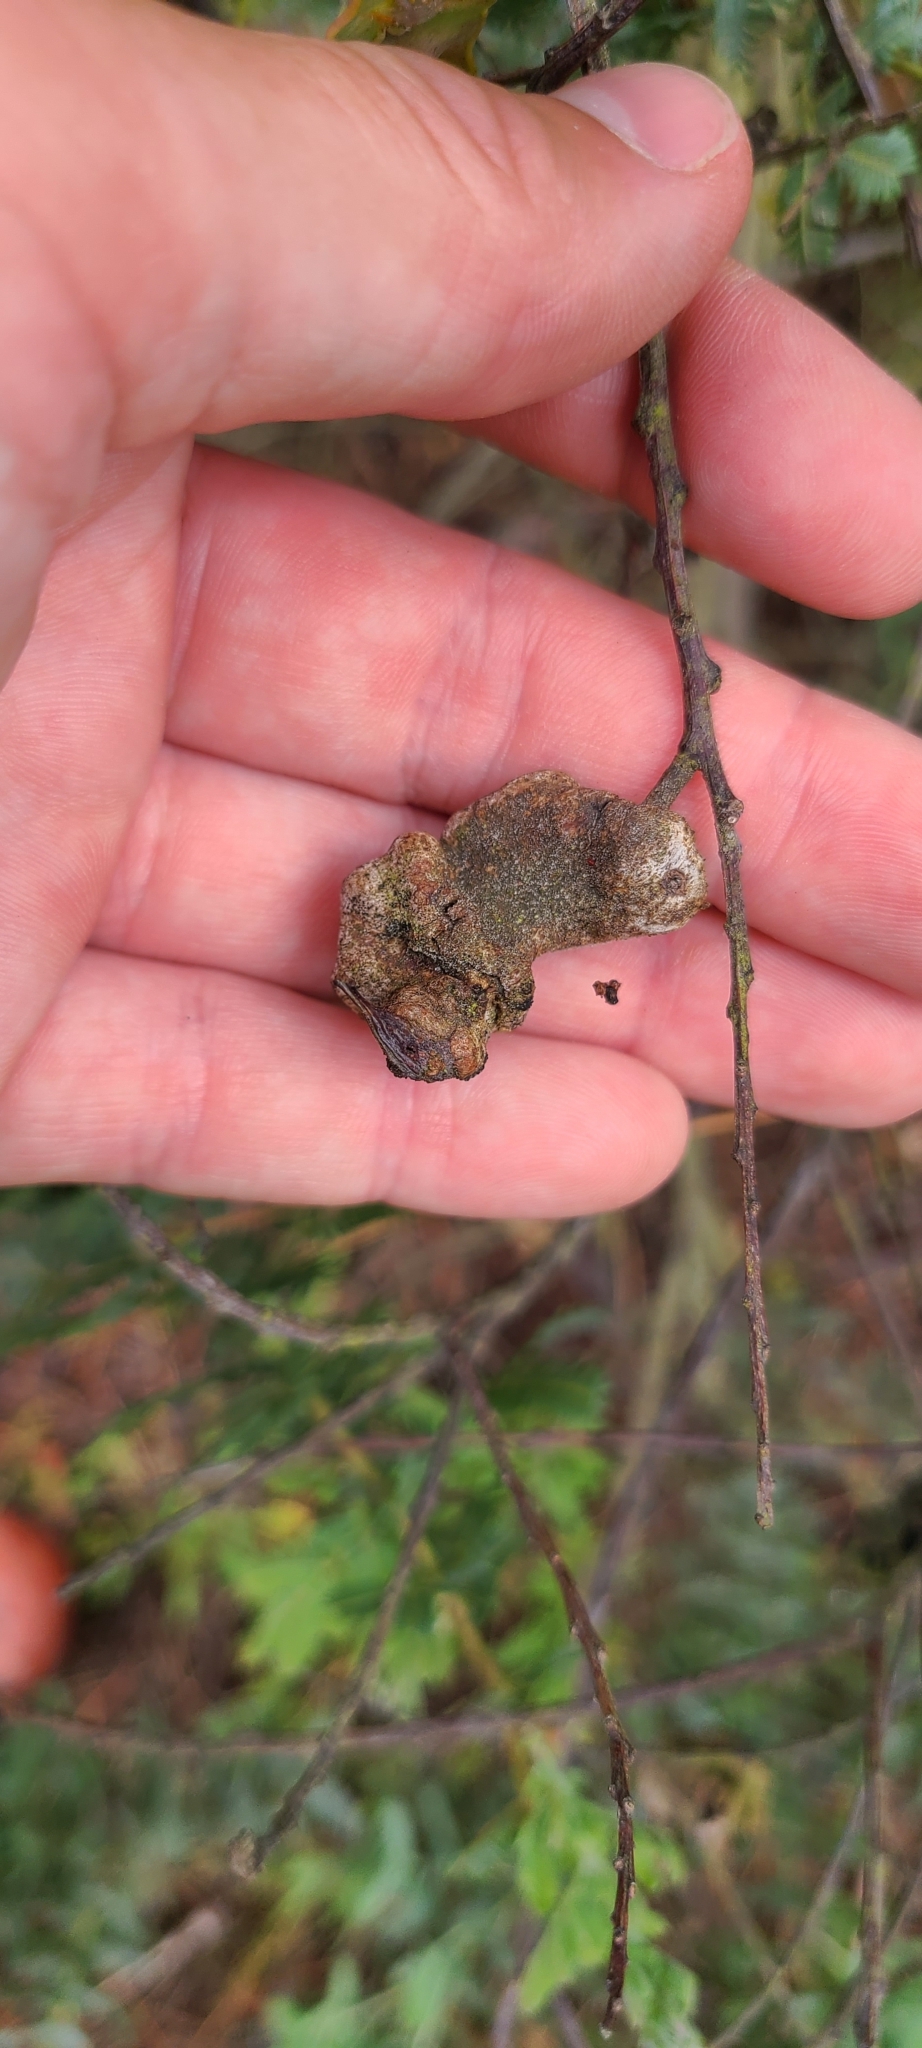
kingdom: Fungi
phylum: Basidiomycota
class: Pucciniomycetes
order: Pucciniales
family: Uromycladiaceae
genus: Uromycladium
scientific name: Uromycladium murphyi
